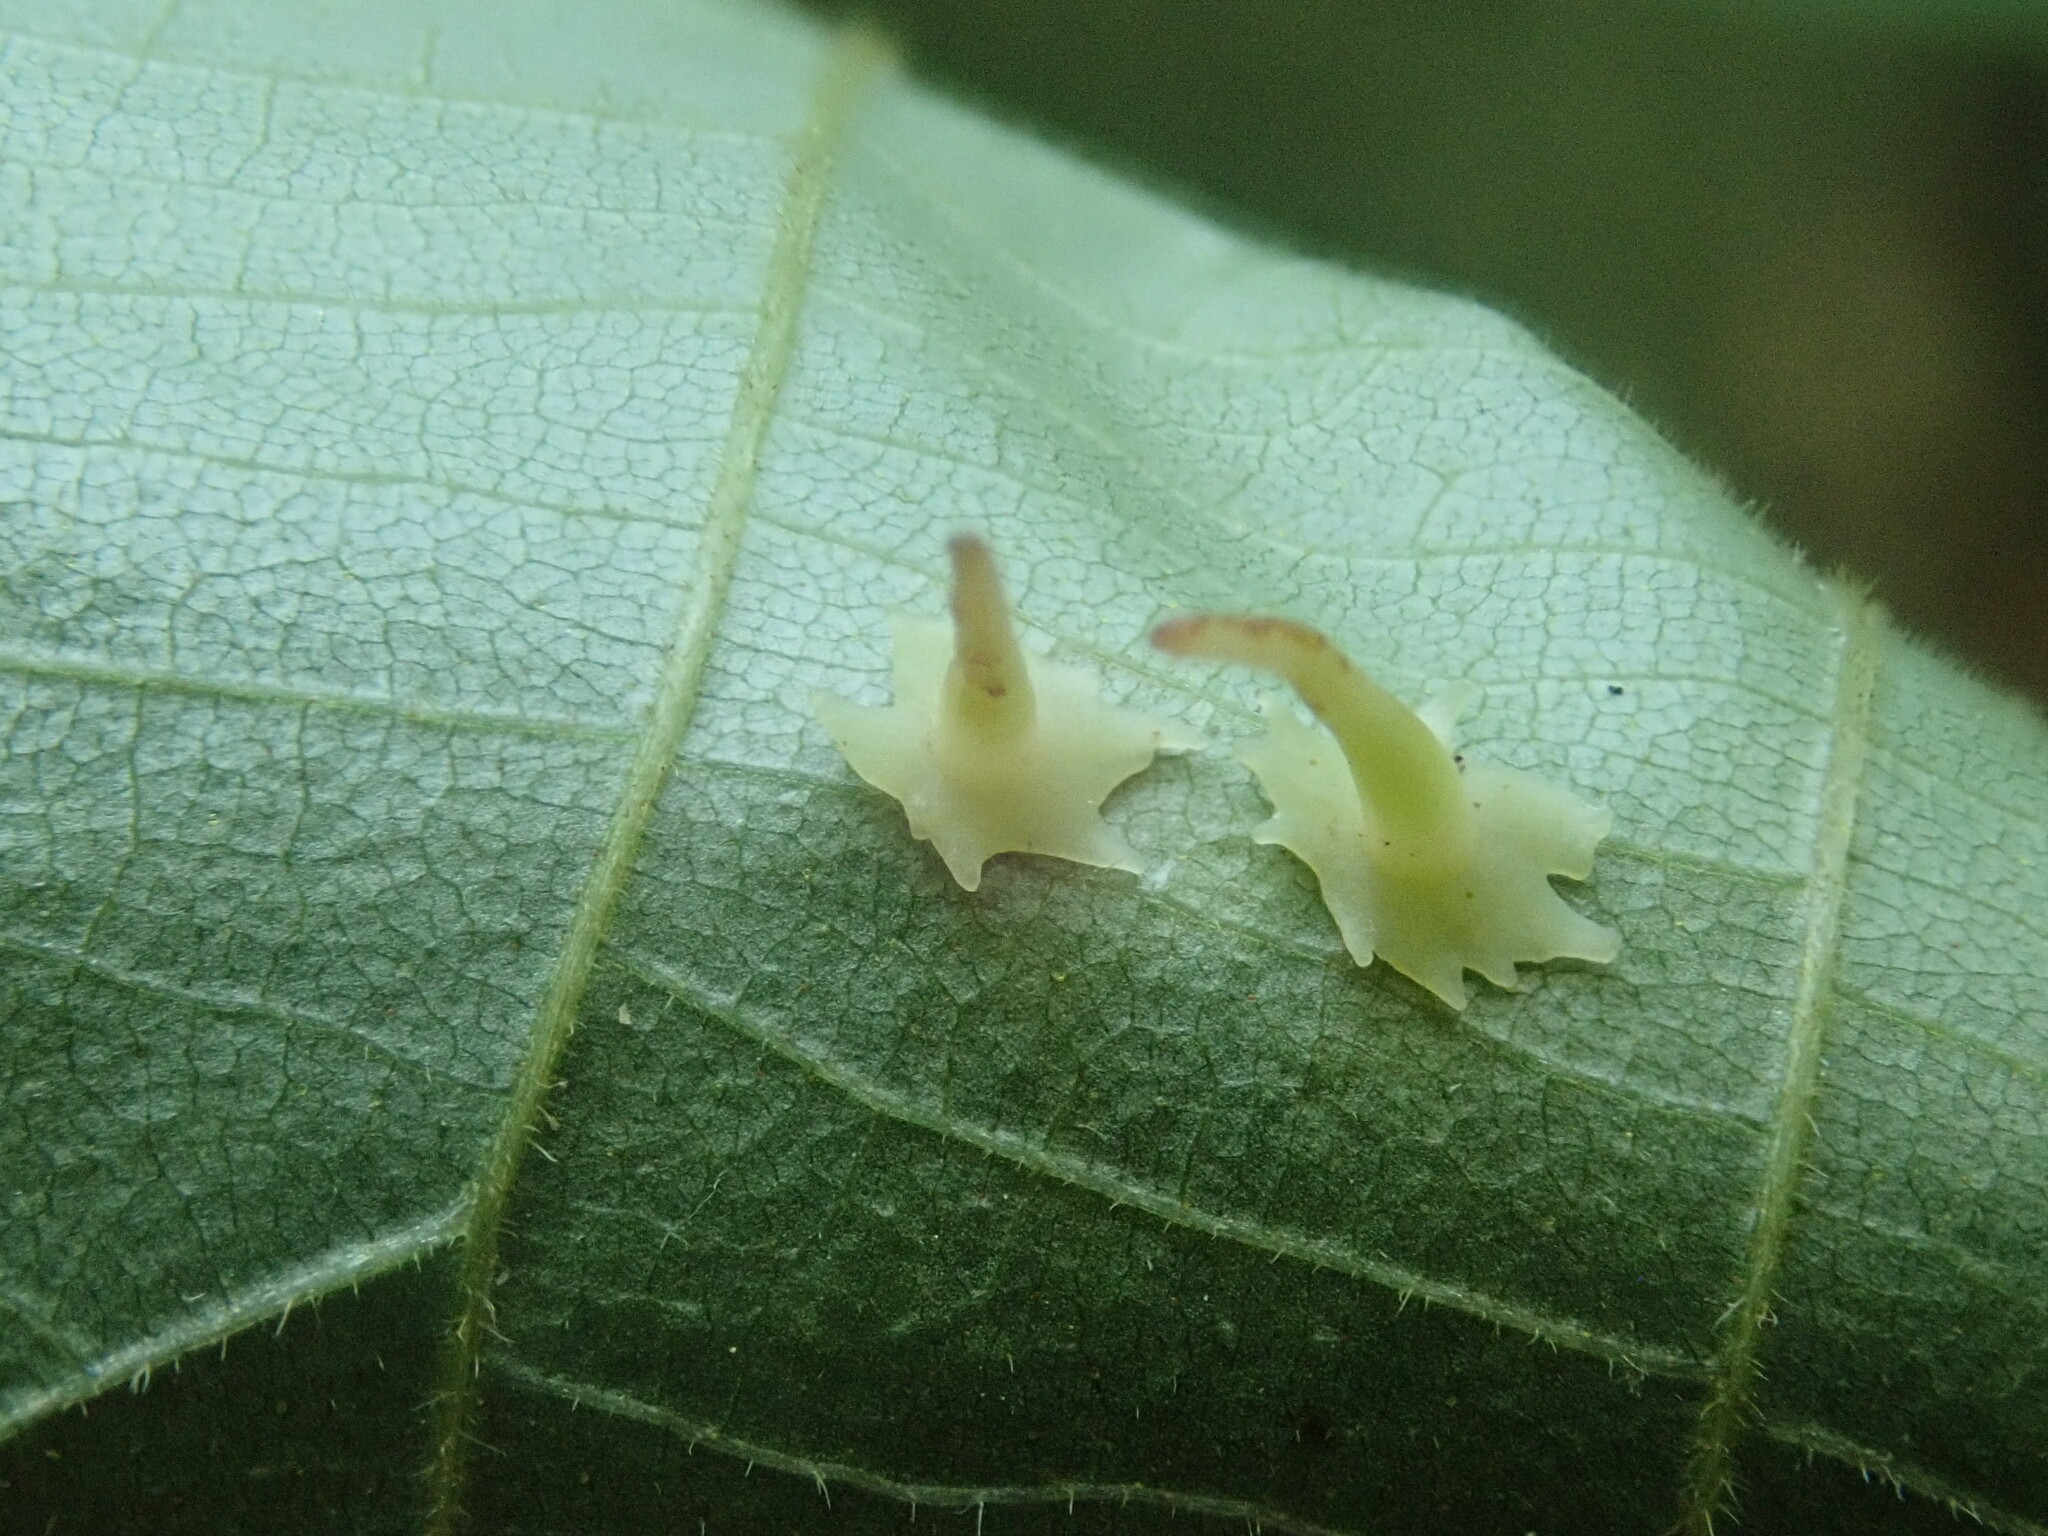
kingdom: Animalia
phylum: Arthropoda
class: Insecta
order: Diptera
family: Cecidomyiidae
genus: Caryomyia
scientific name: Caryomyia stellata
